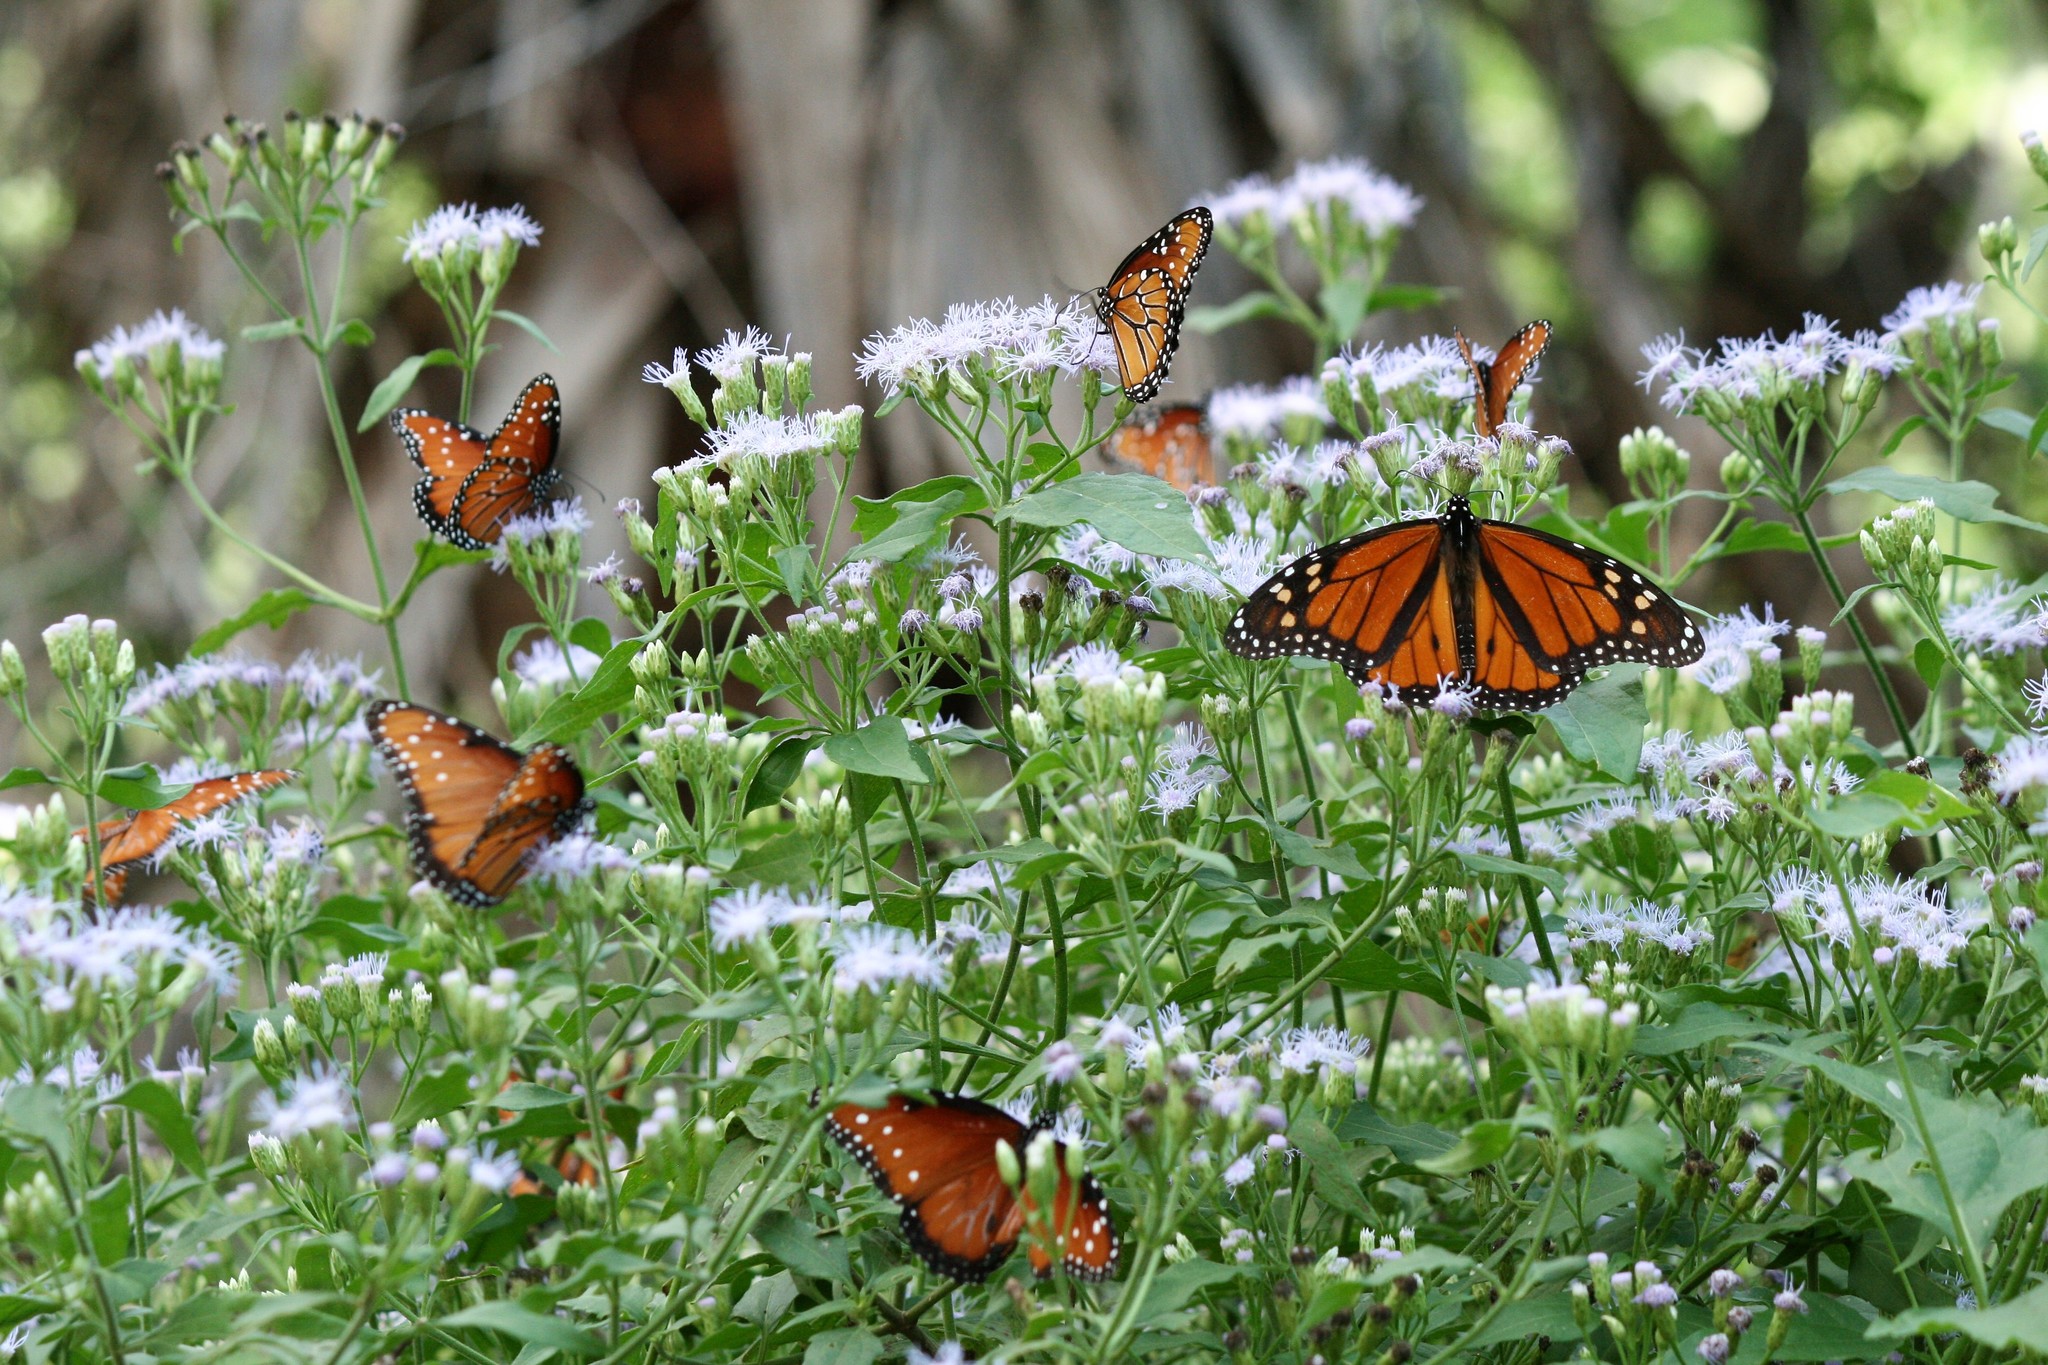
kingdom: Animalia
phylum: Arthropoda
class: Insecta
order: Lepidoptera
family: Nymphalidae
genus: Danaus
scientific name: Danaus plexippus
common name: Monarch
